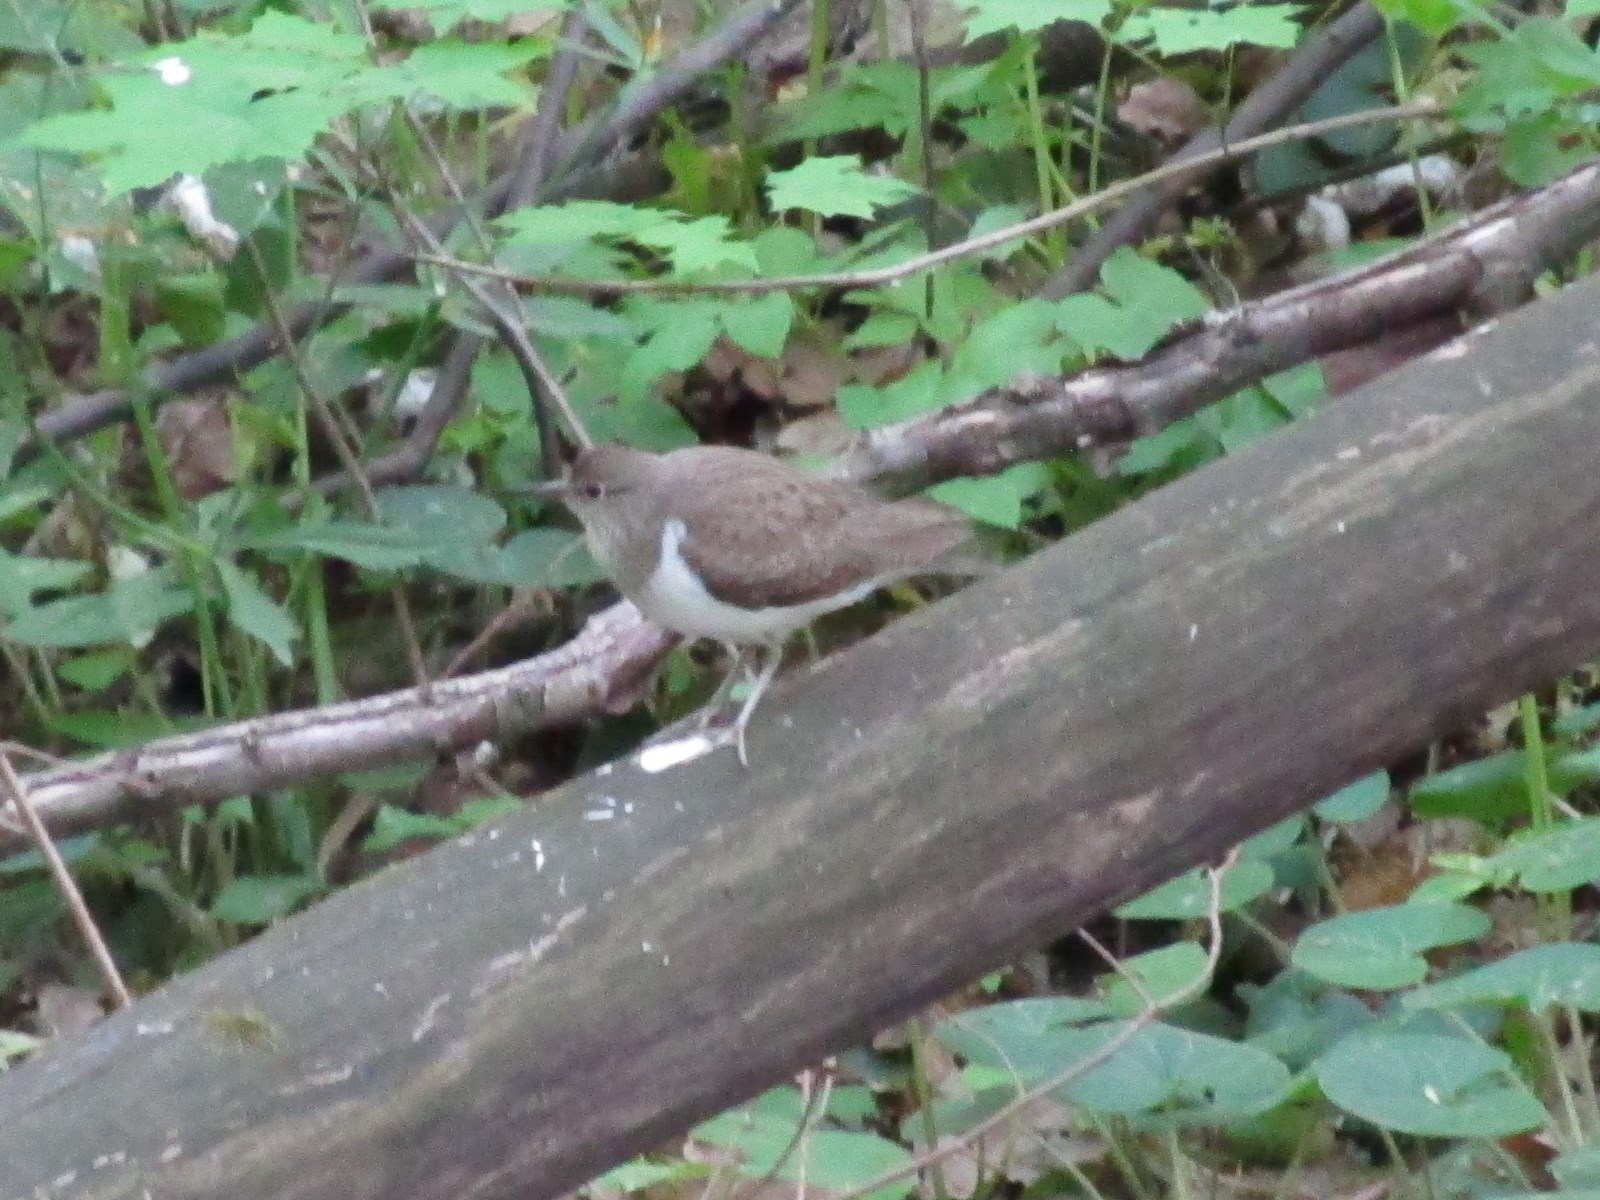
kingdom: Animalia
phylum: Chordata
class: Aves
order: Charadriiformes
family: Scolopacidae
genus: Actitis
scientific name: Actitis hypoleucos
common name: Common sandpiper
